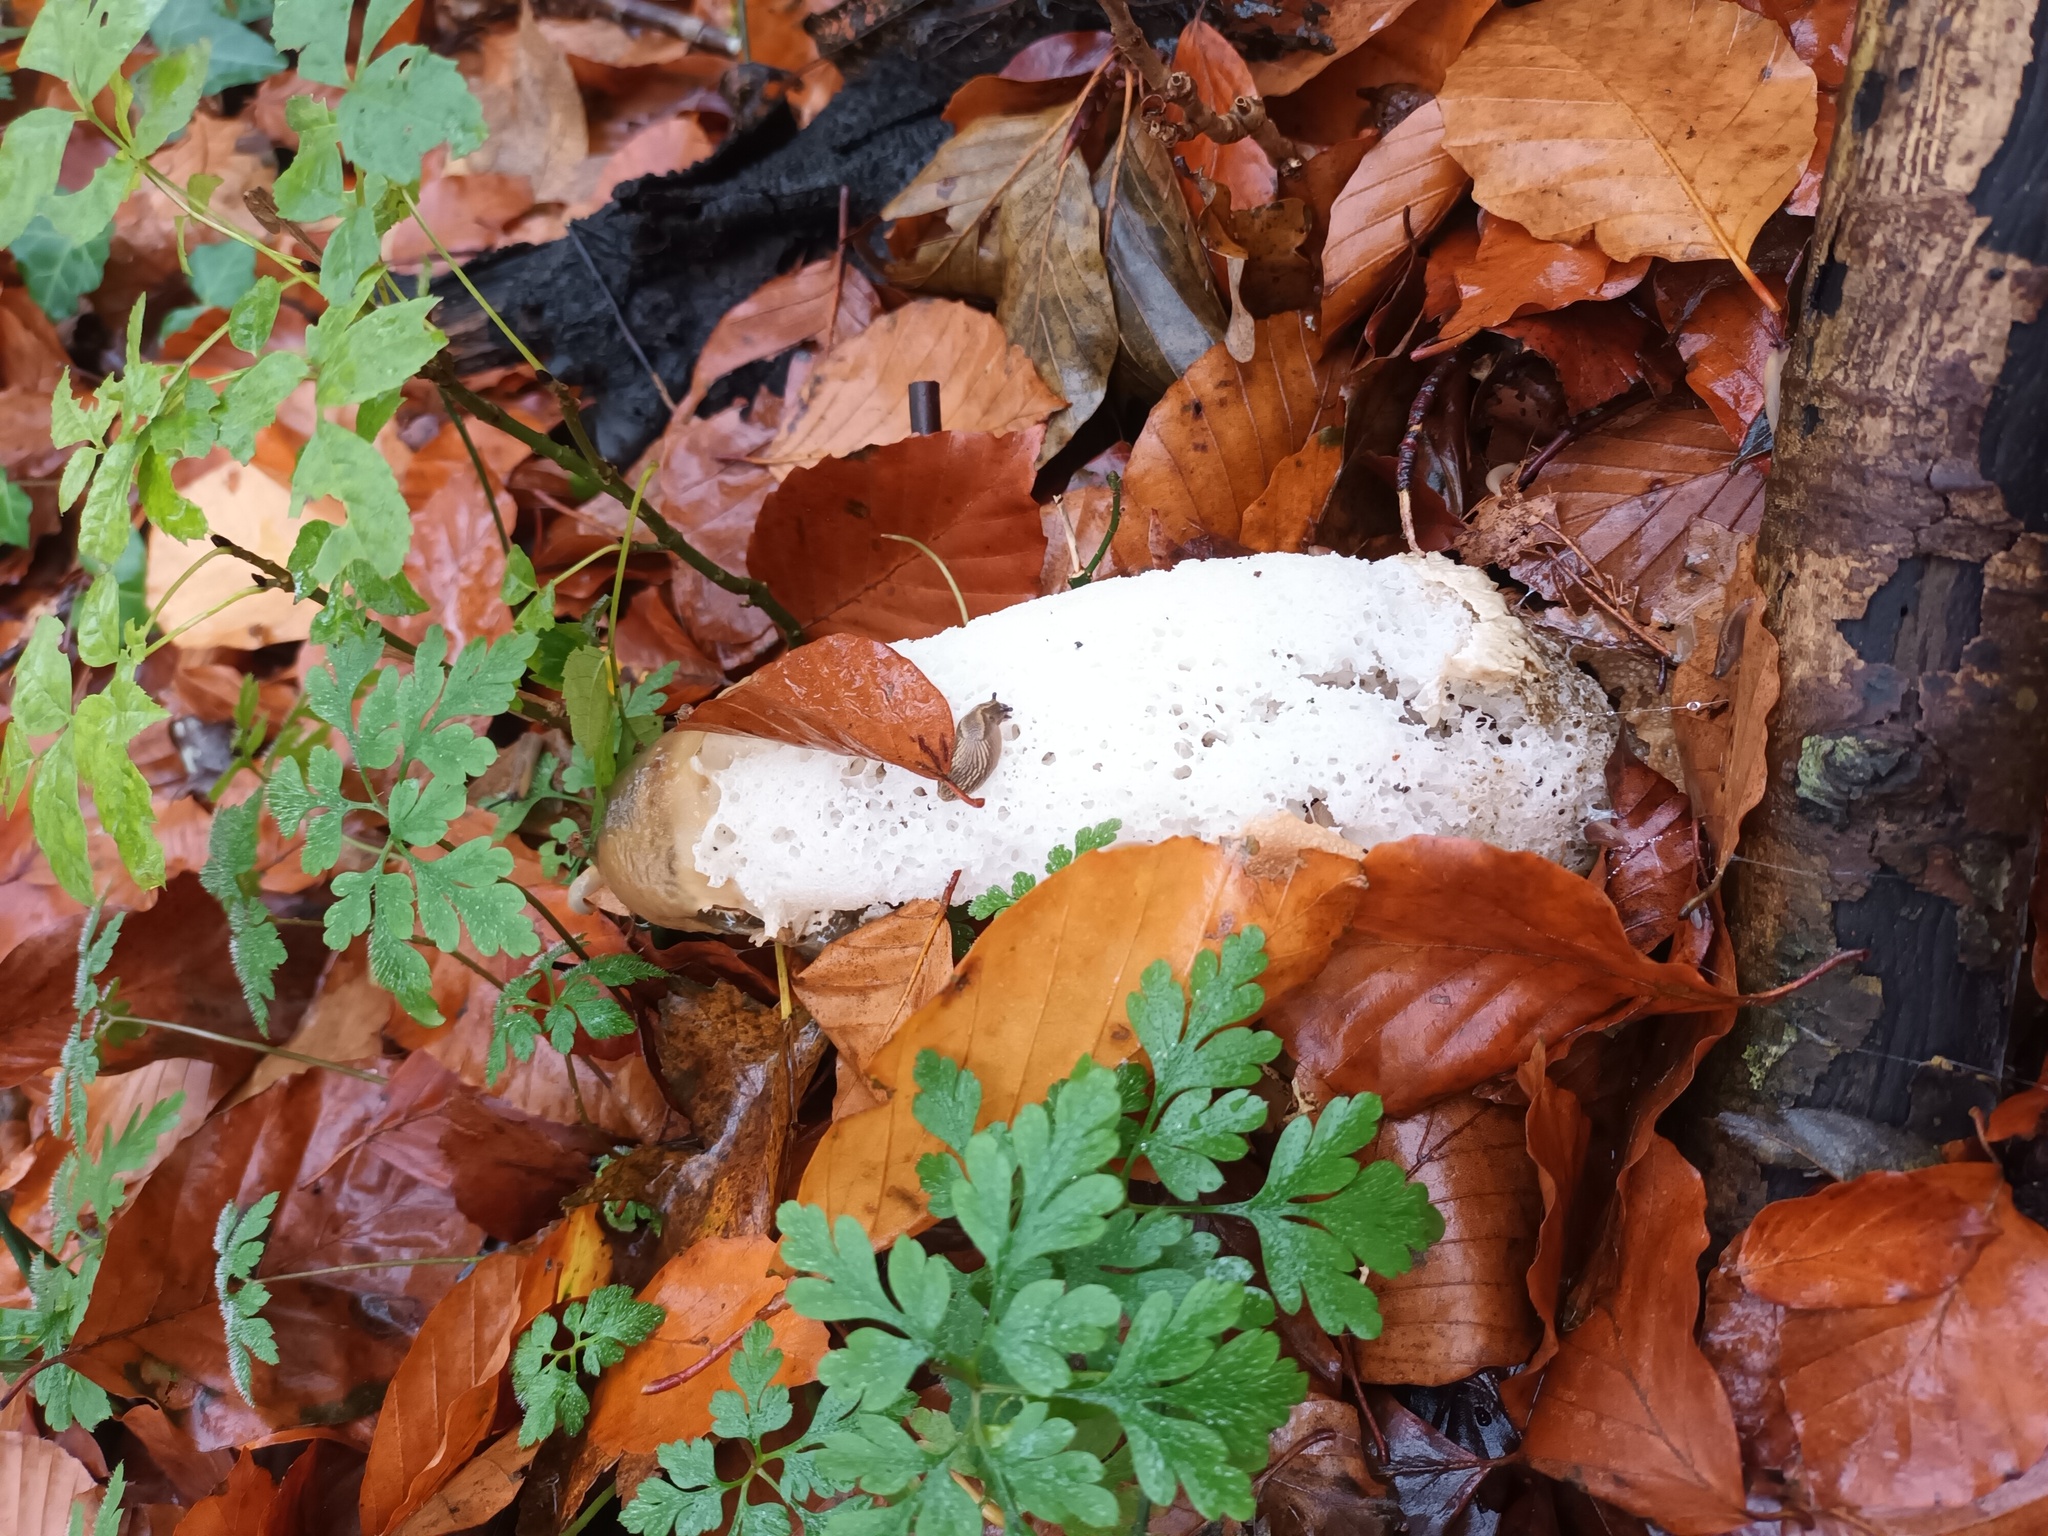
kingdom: Fungi
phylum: Basidiomycota
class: Agaricomycetes
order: Phallales
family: Phallaceae
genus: Phallus
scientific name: Phallus impudicus
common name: Common stinkhorn
